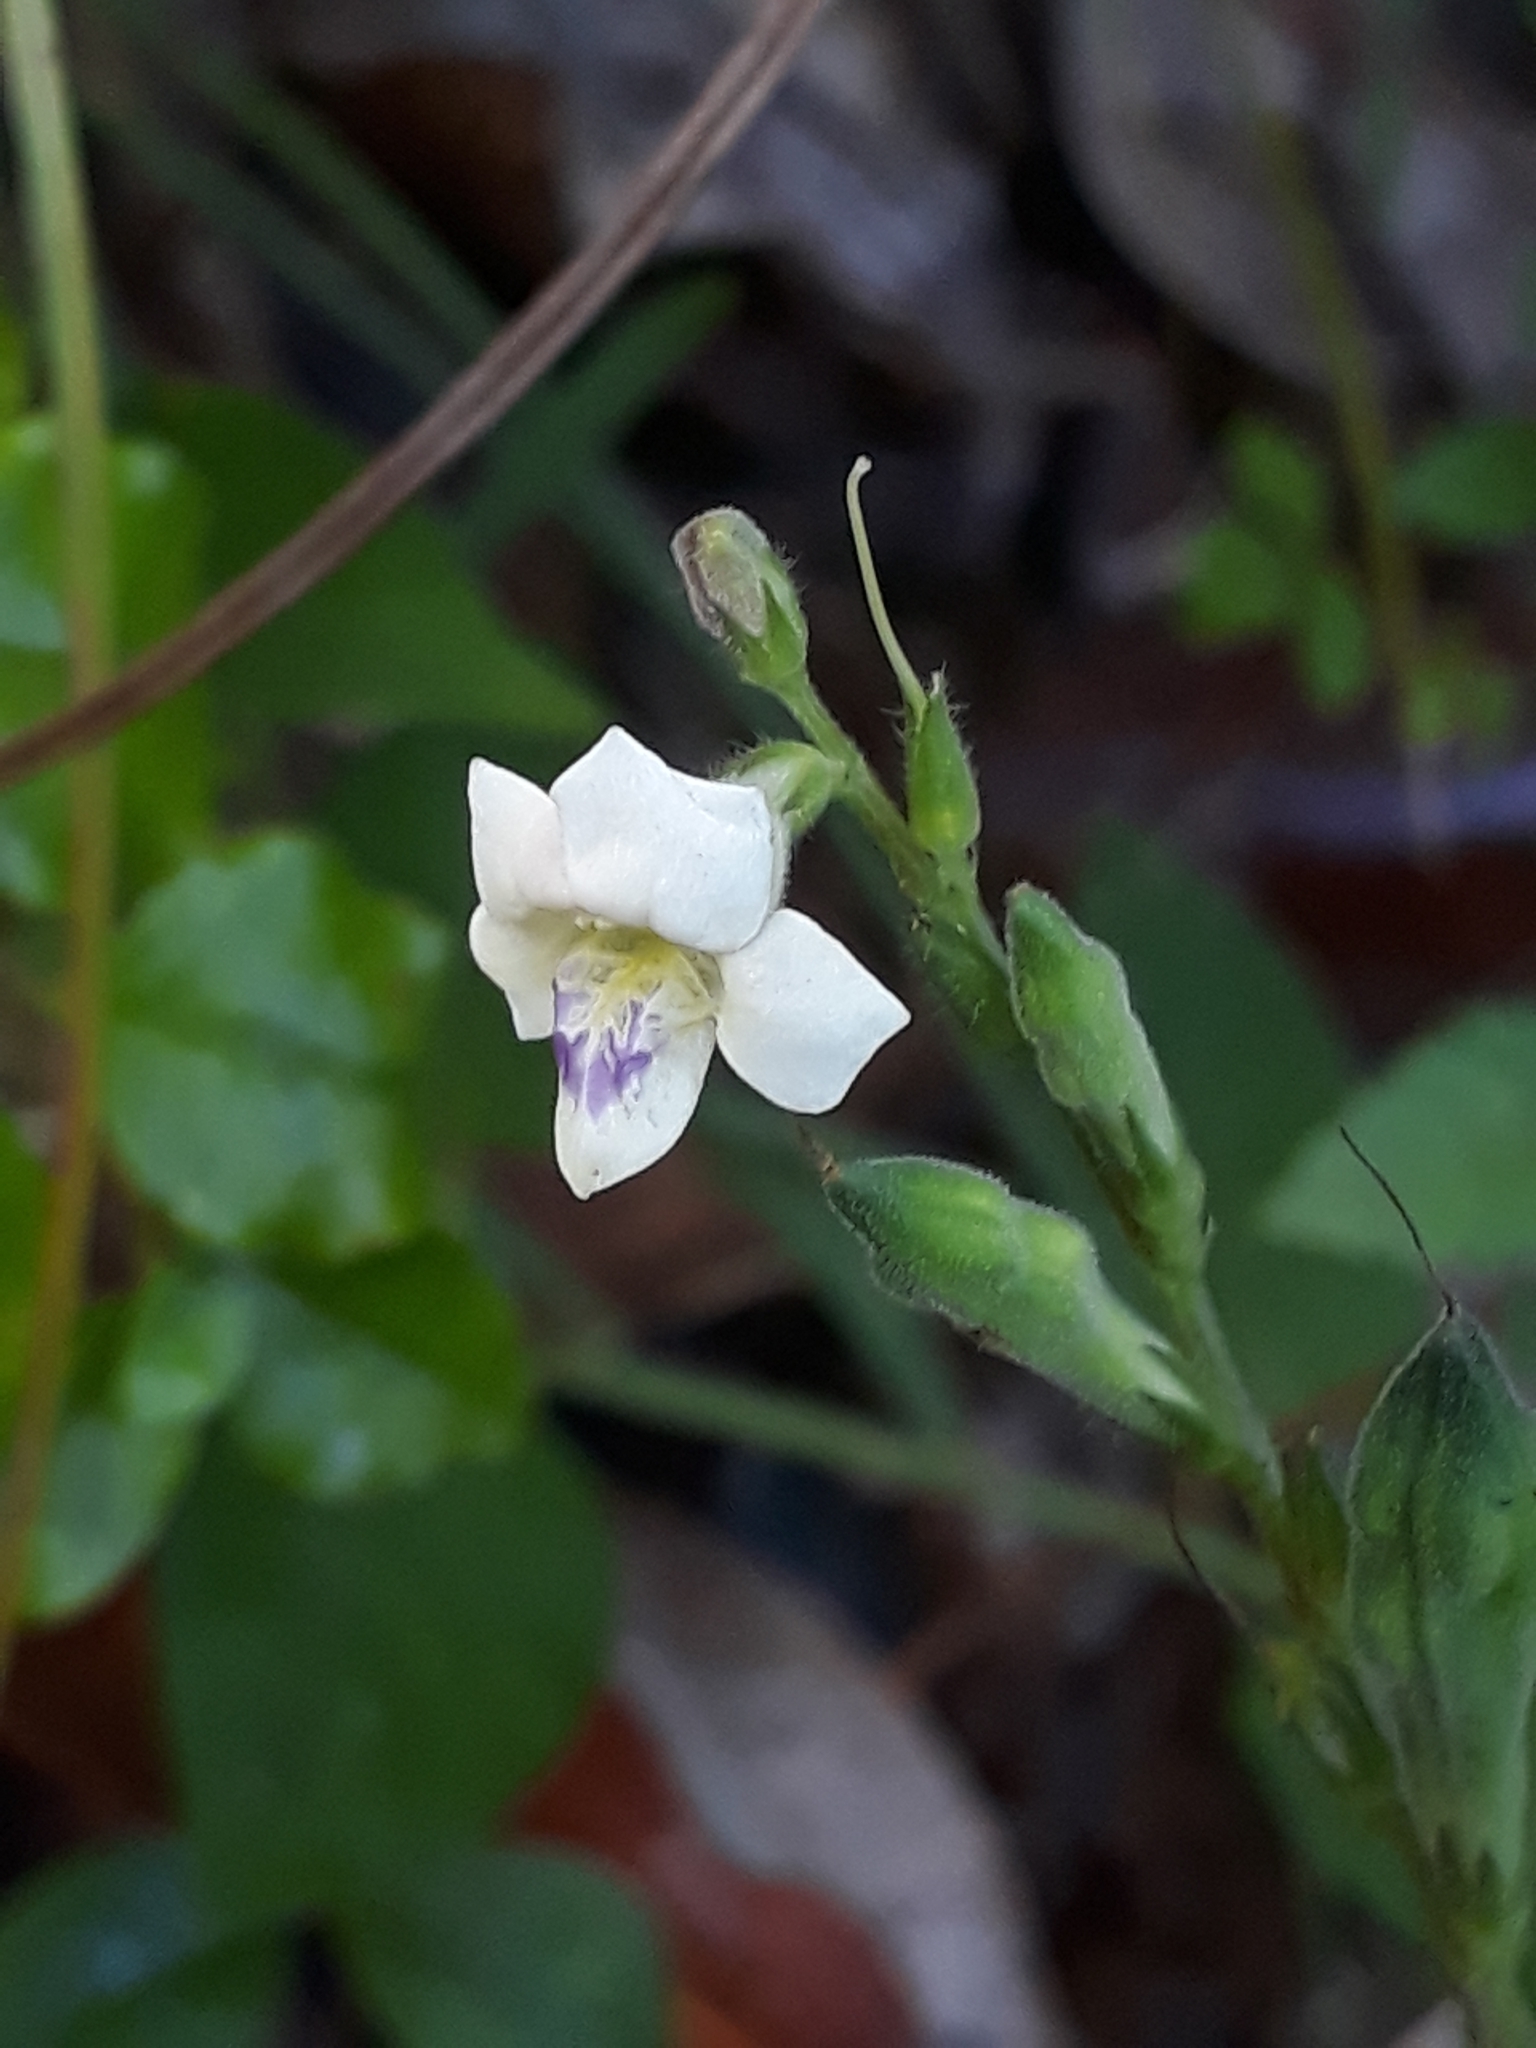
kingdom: Plantae
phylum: Tracheophyta
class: Magnoliopsida
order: Lamiales
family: Acanthaceae
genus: Asystasia
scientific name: Asystasia intrusa
